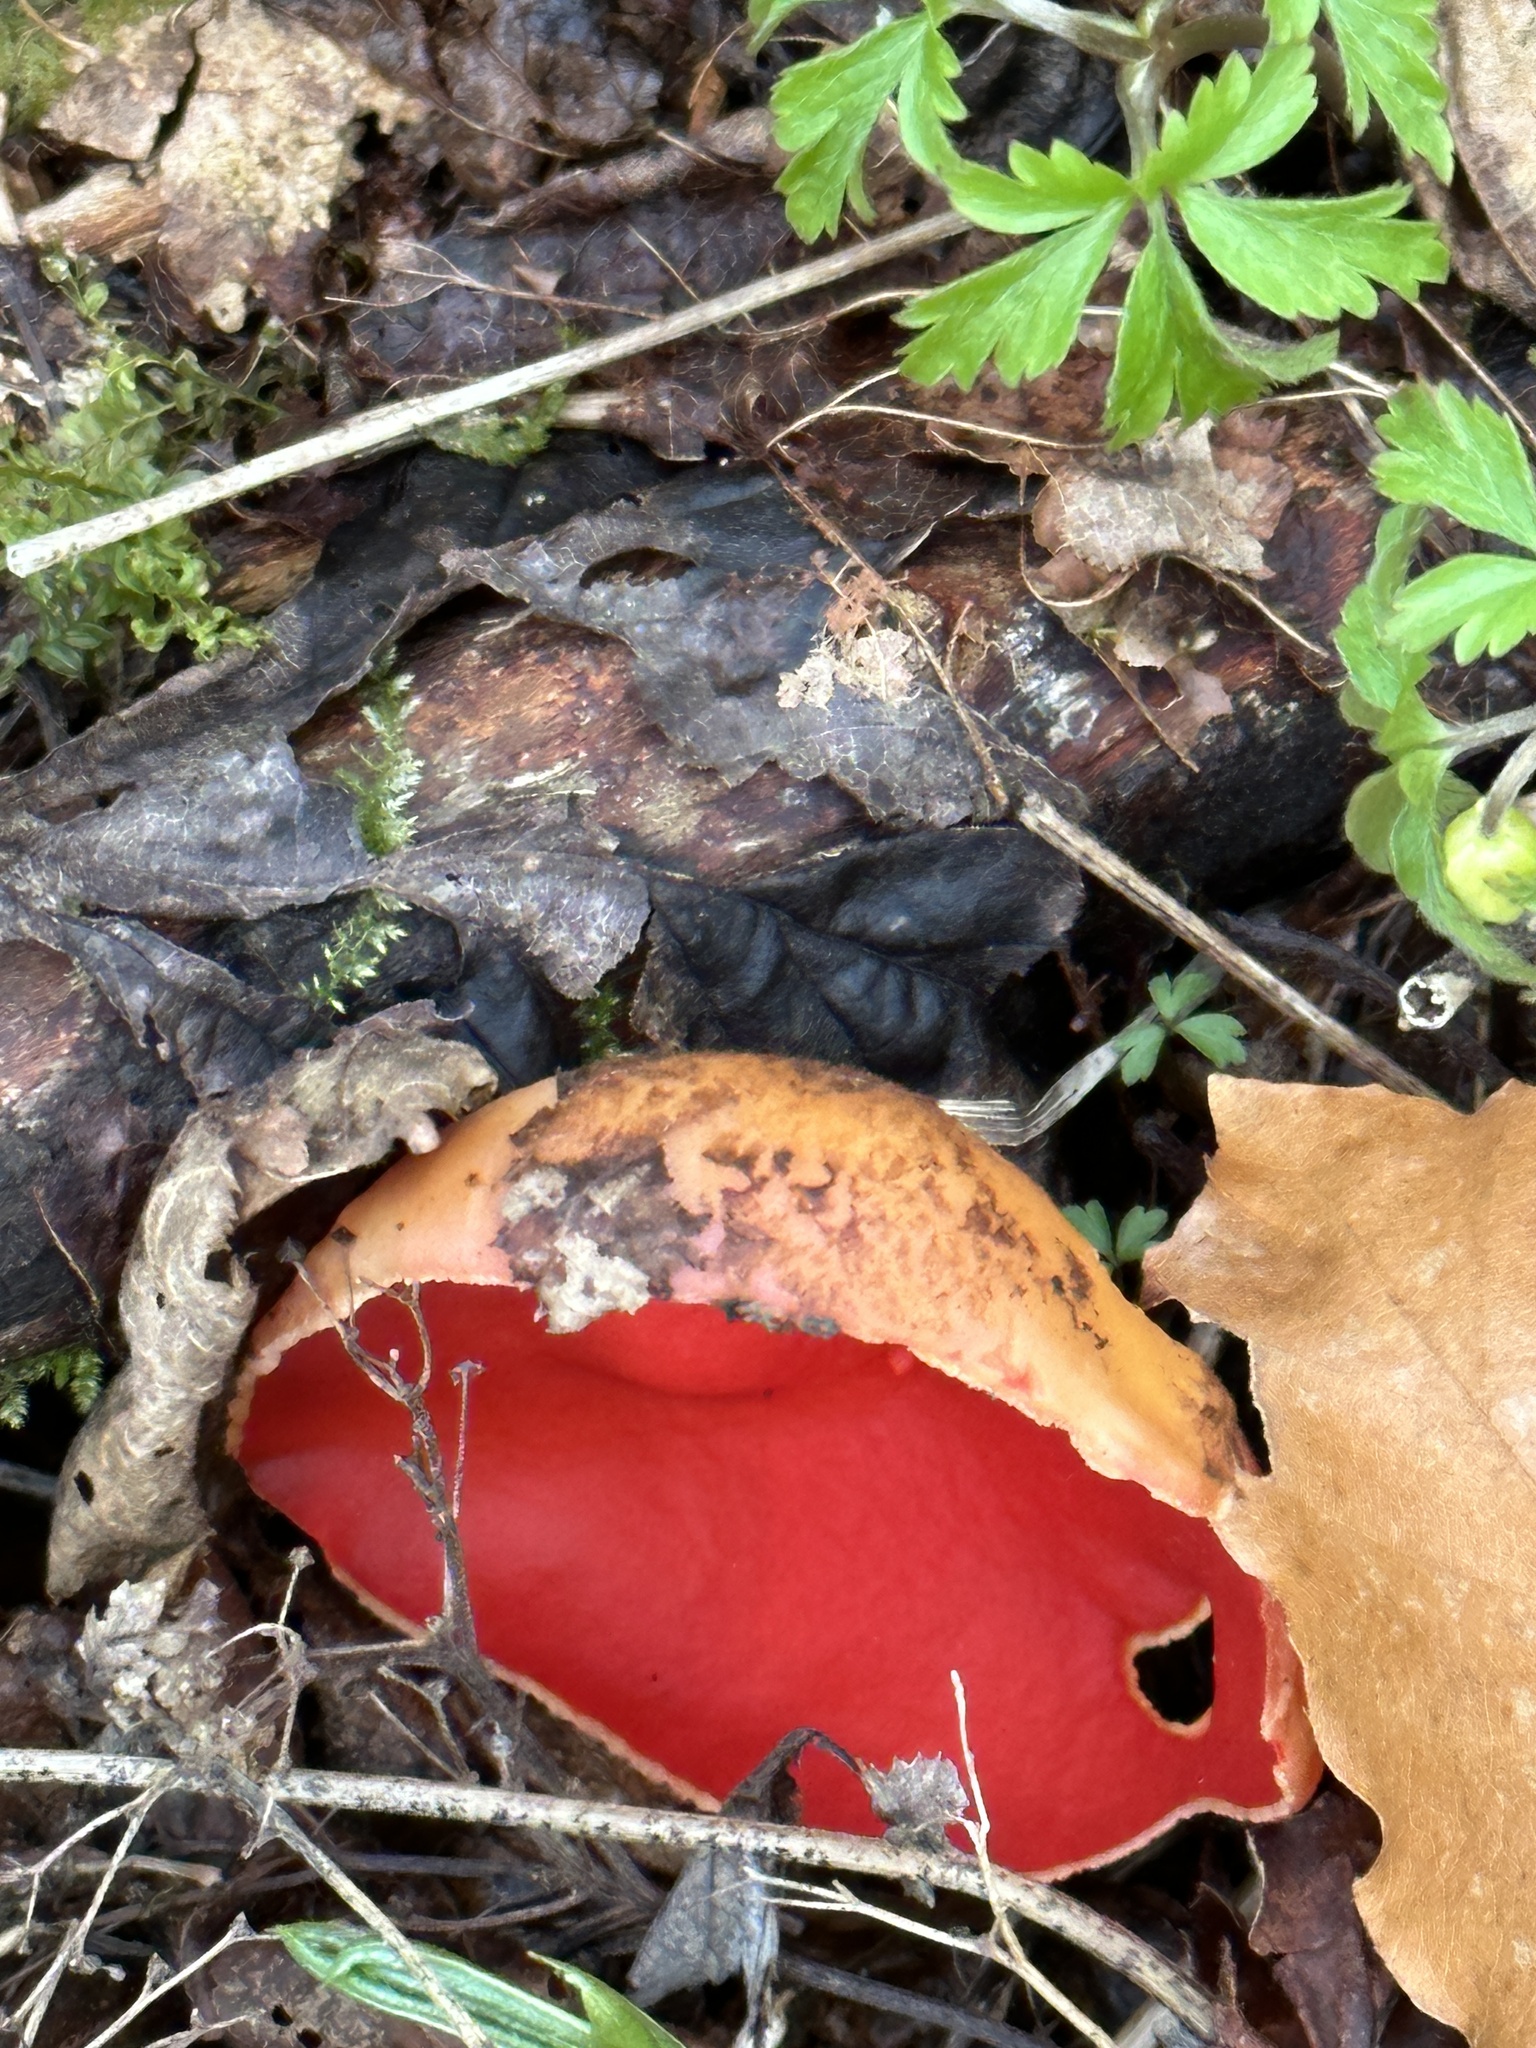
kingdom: Fungi
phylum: Ascomycota
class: Pezizomycetes
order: Pezizales
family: Sarcoscyphaceae
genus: Sarcoscypha
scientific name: Sarcoscypha
